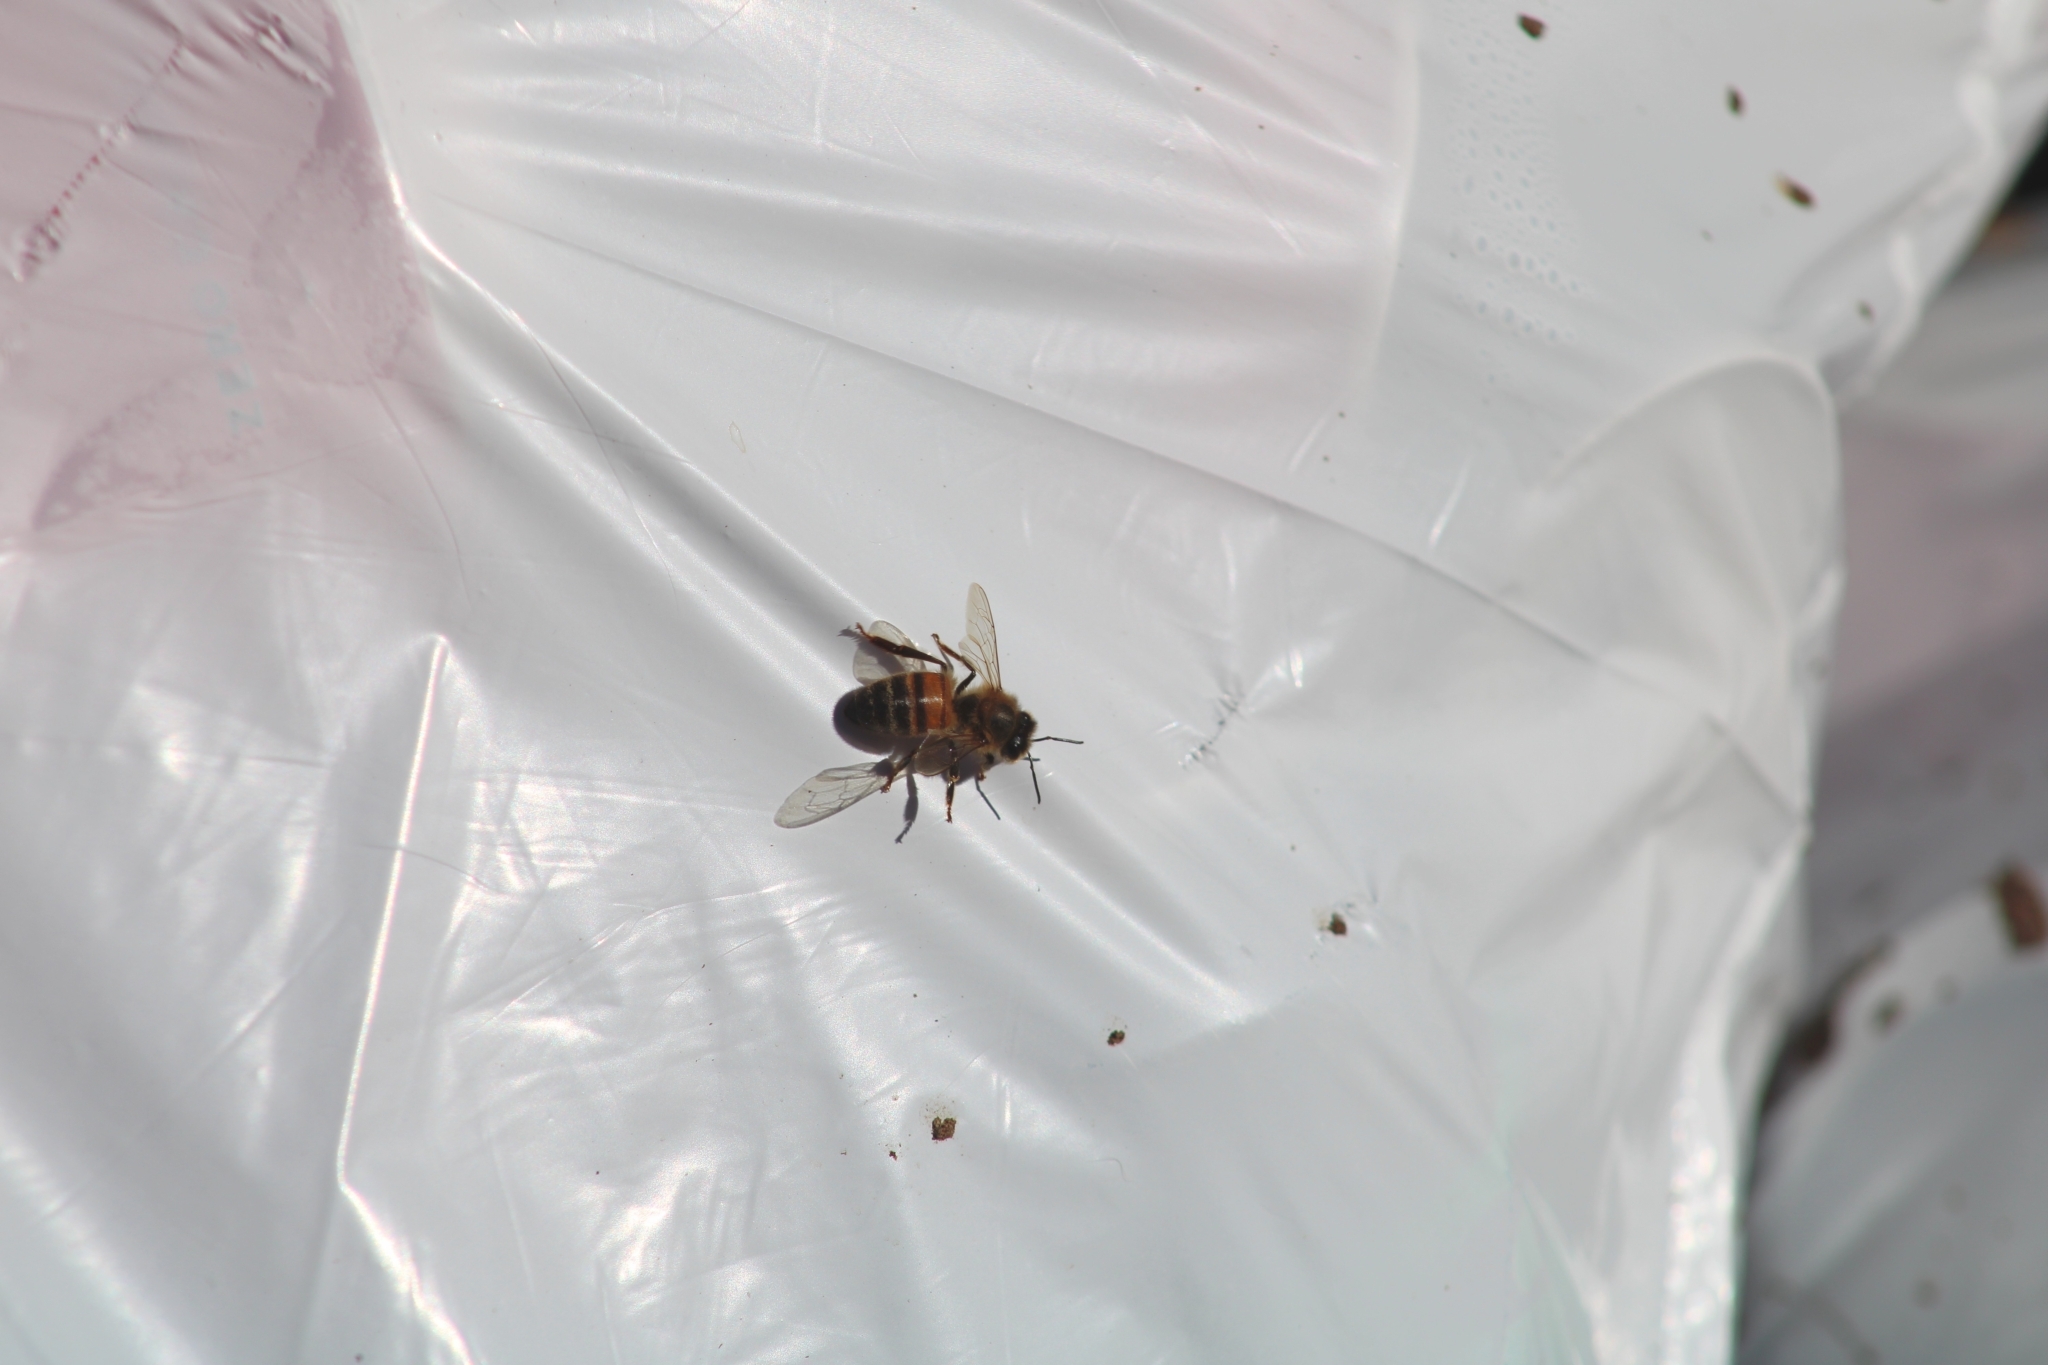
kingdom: Animalia
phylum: Arthropoda
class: Insecta
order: Hymenoptera
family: Apidae
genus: Apis
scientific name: Apis mellifera
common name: Honey bee
